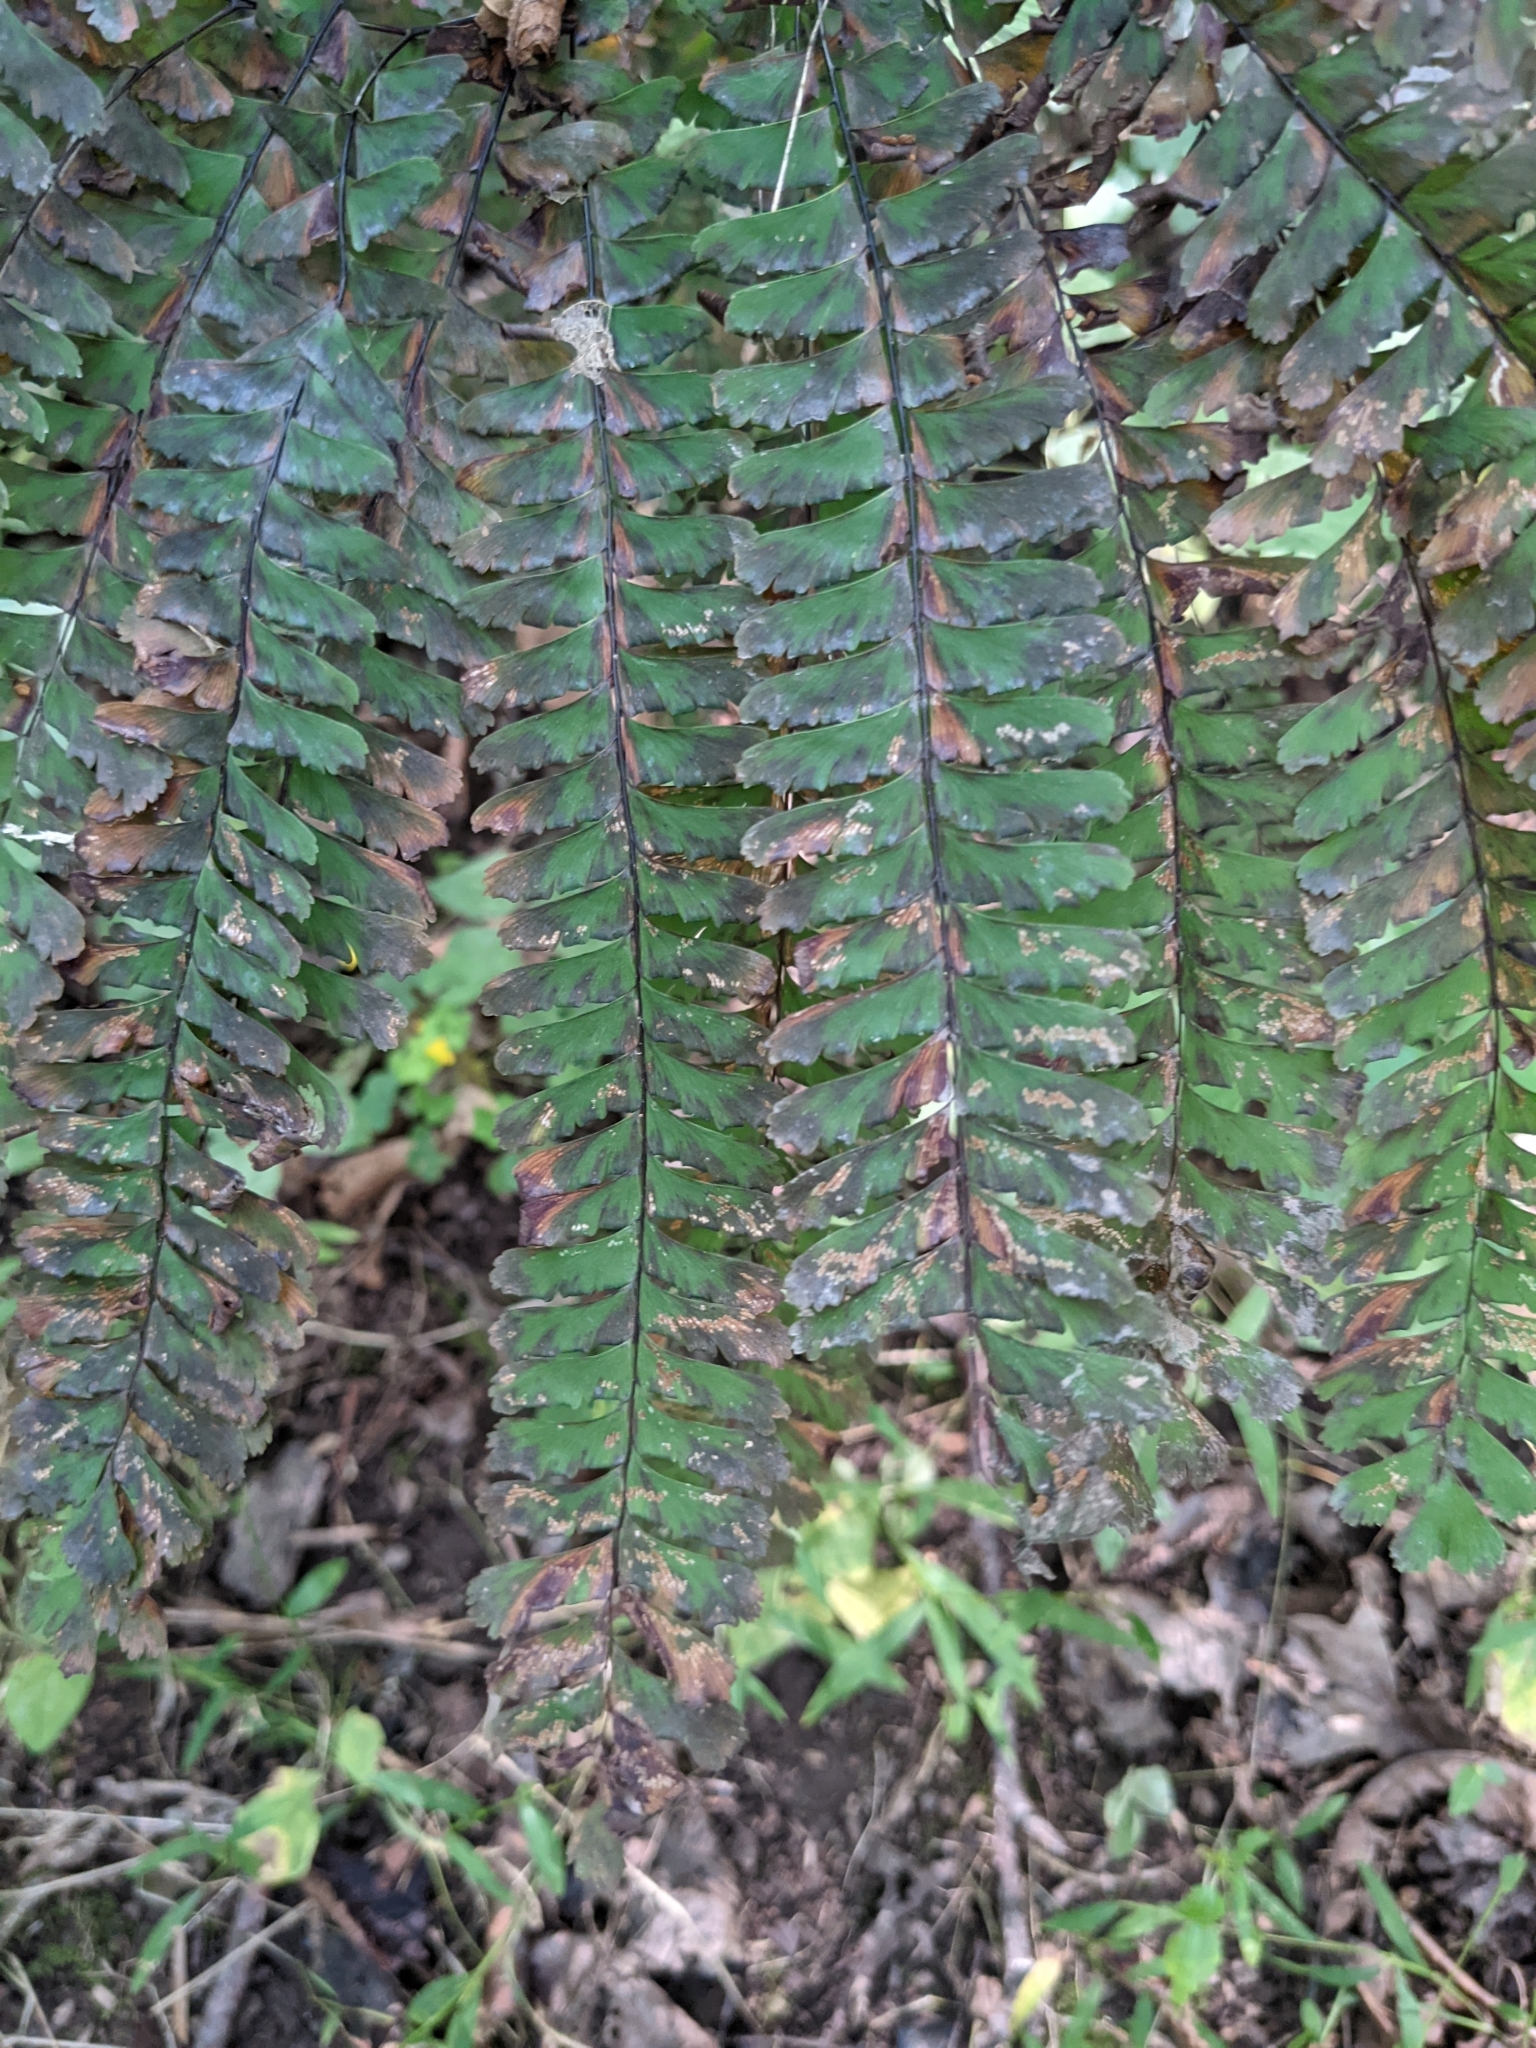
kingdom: Plantae
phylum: Tracheophyta
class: Polypodiopsida
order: Polypodiales
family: Pteridaceae
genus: Adiantum
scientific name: Adiantum pedatum
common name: Five-finger fern
